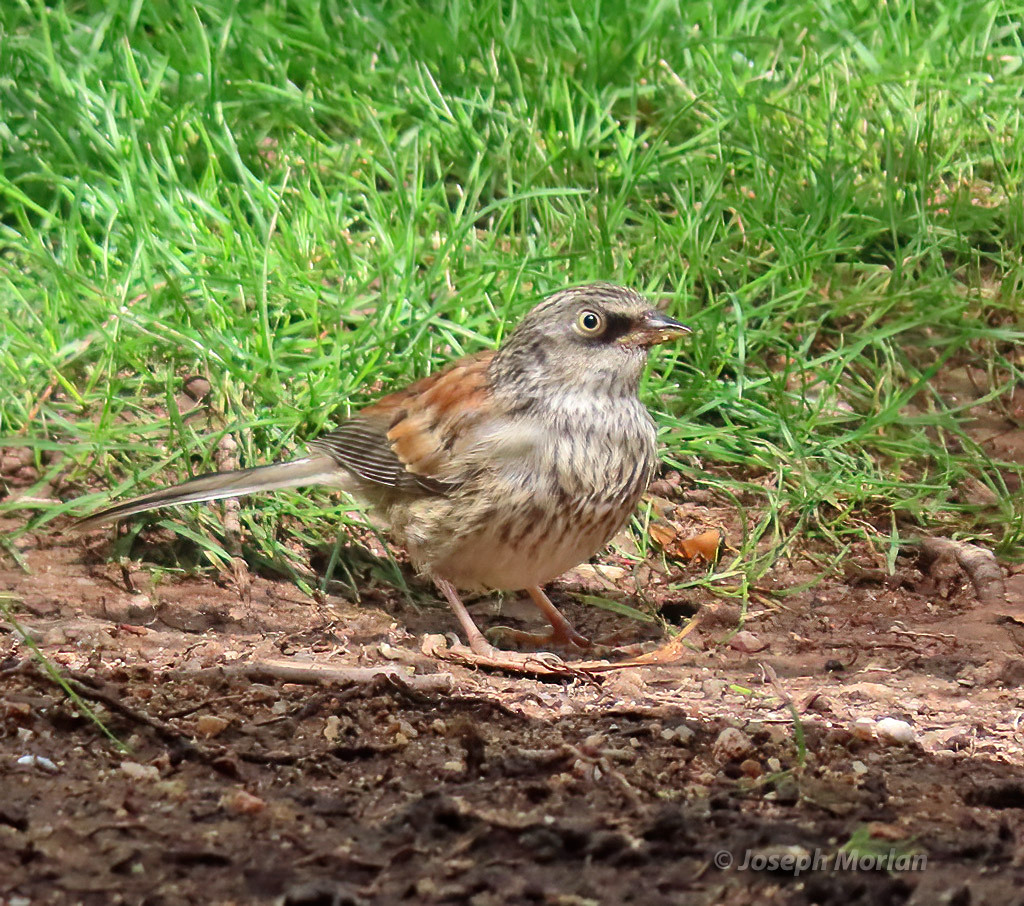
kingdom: Animalia
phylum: Chordata
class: Aves
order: Passeriformes
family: Passerellidae
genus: Junco
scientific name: Junco phaeonotus
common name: Yellow-eyed junco
